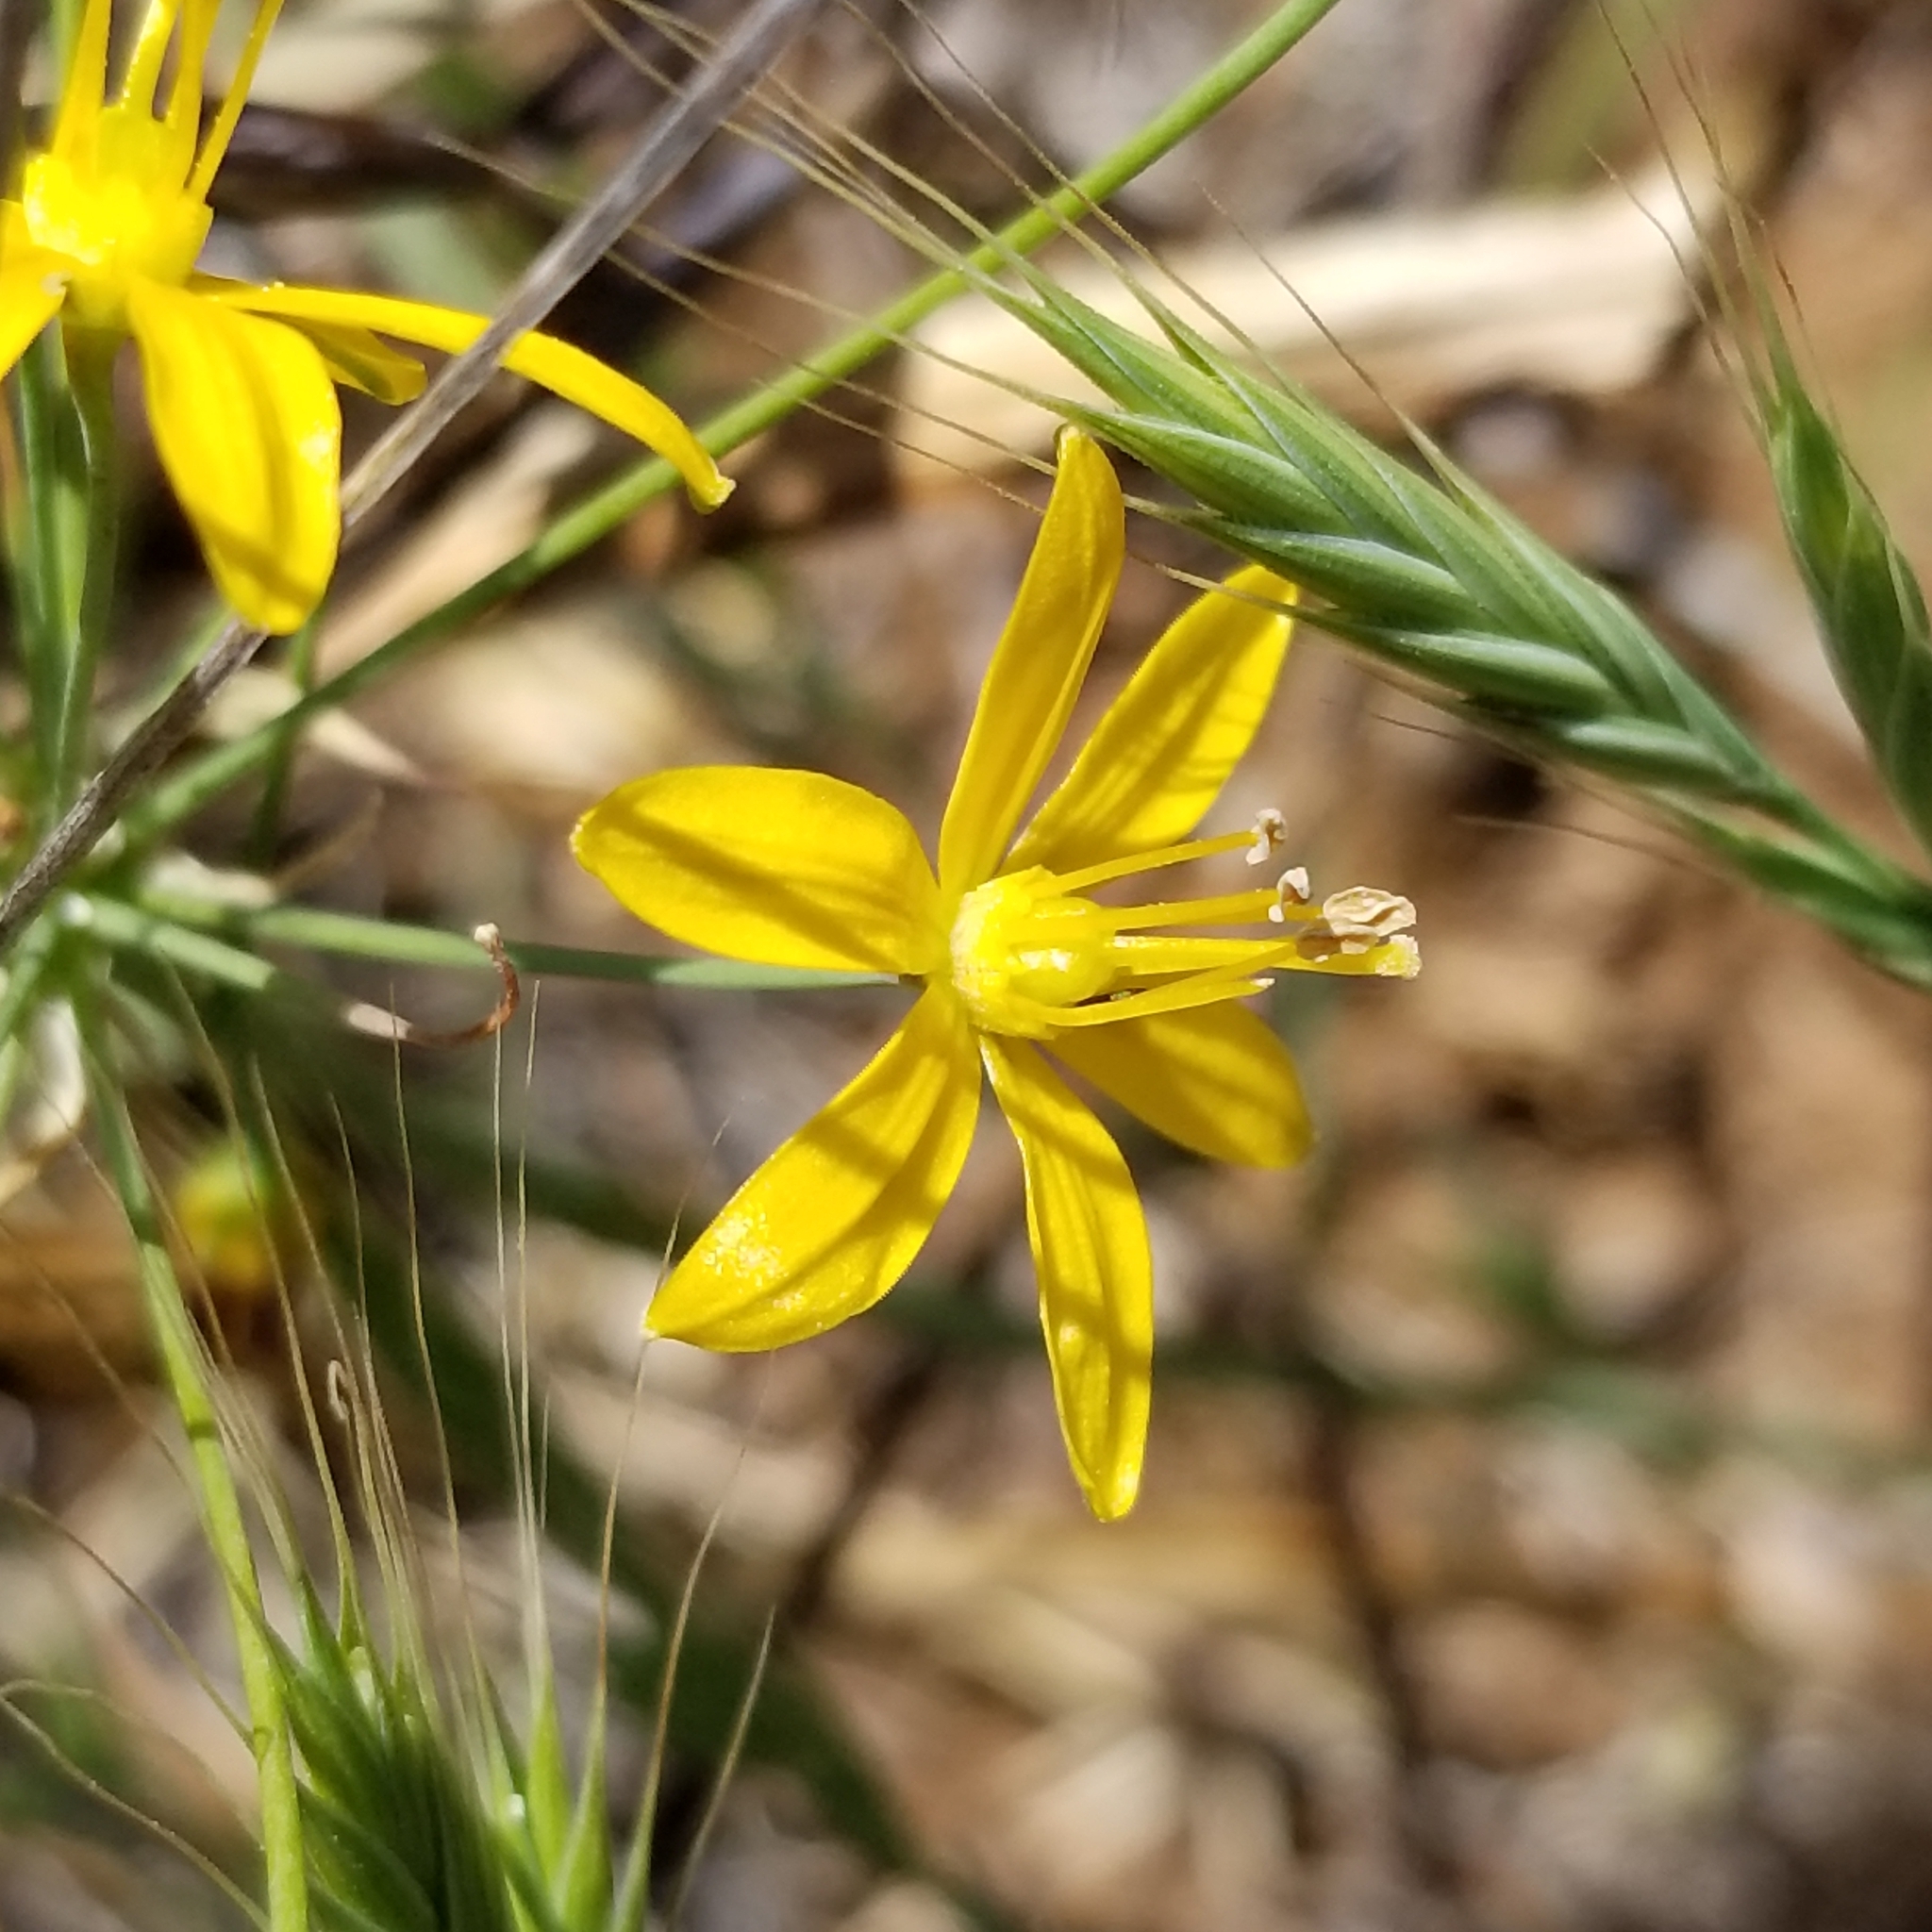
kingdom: Plantae
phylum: Tracheophyta
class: Liliopsida
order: Asparagales
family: Asparagaceae
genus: Bloomeria
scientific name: Bloomeria crocea
